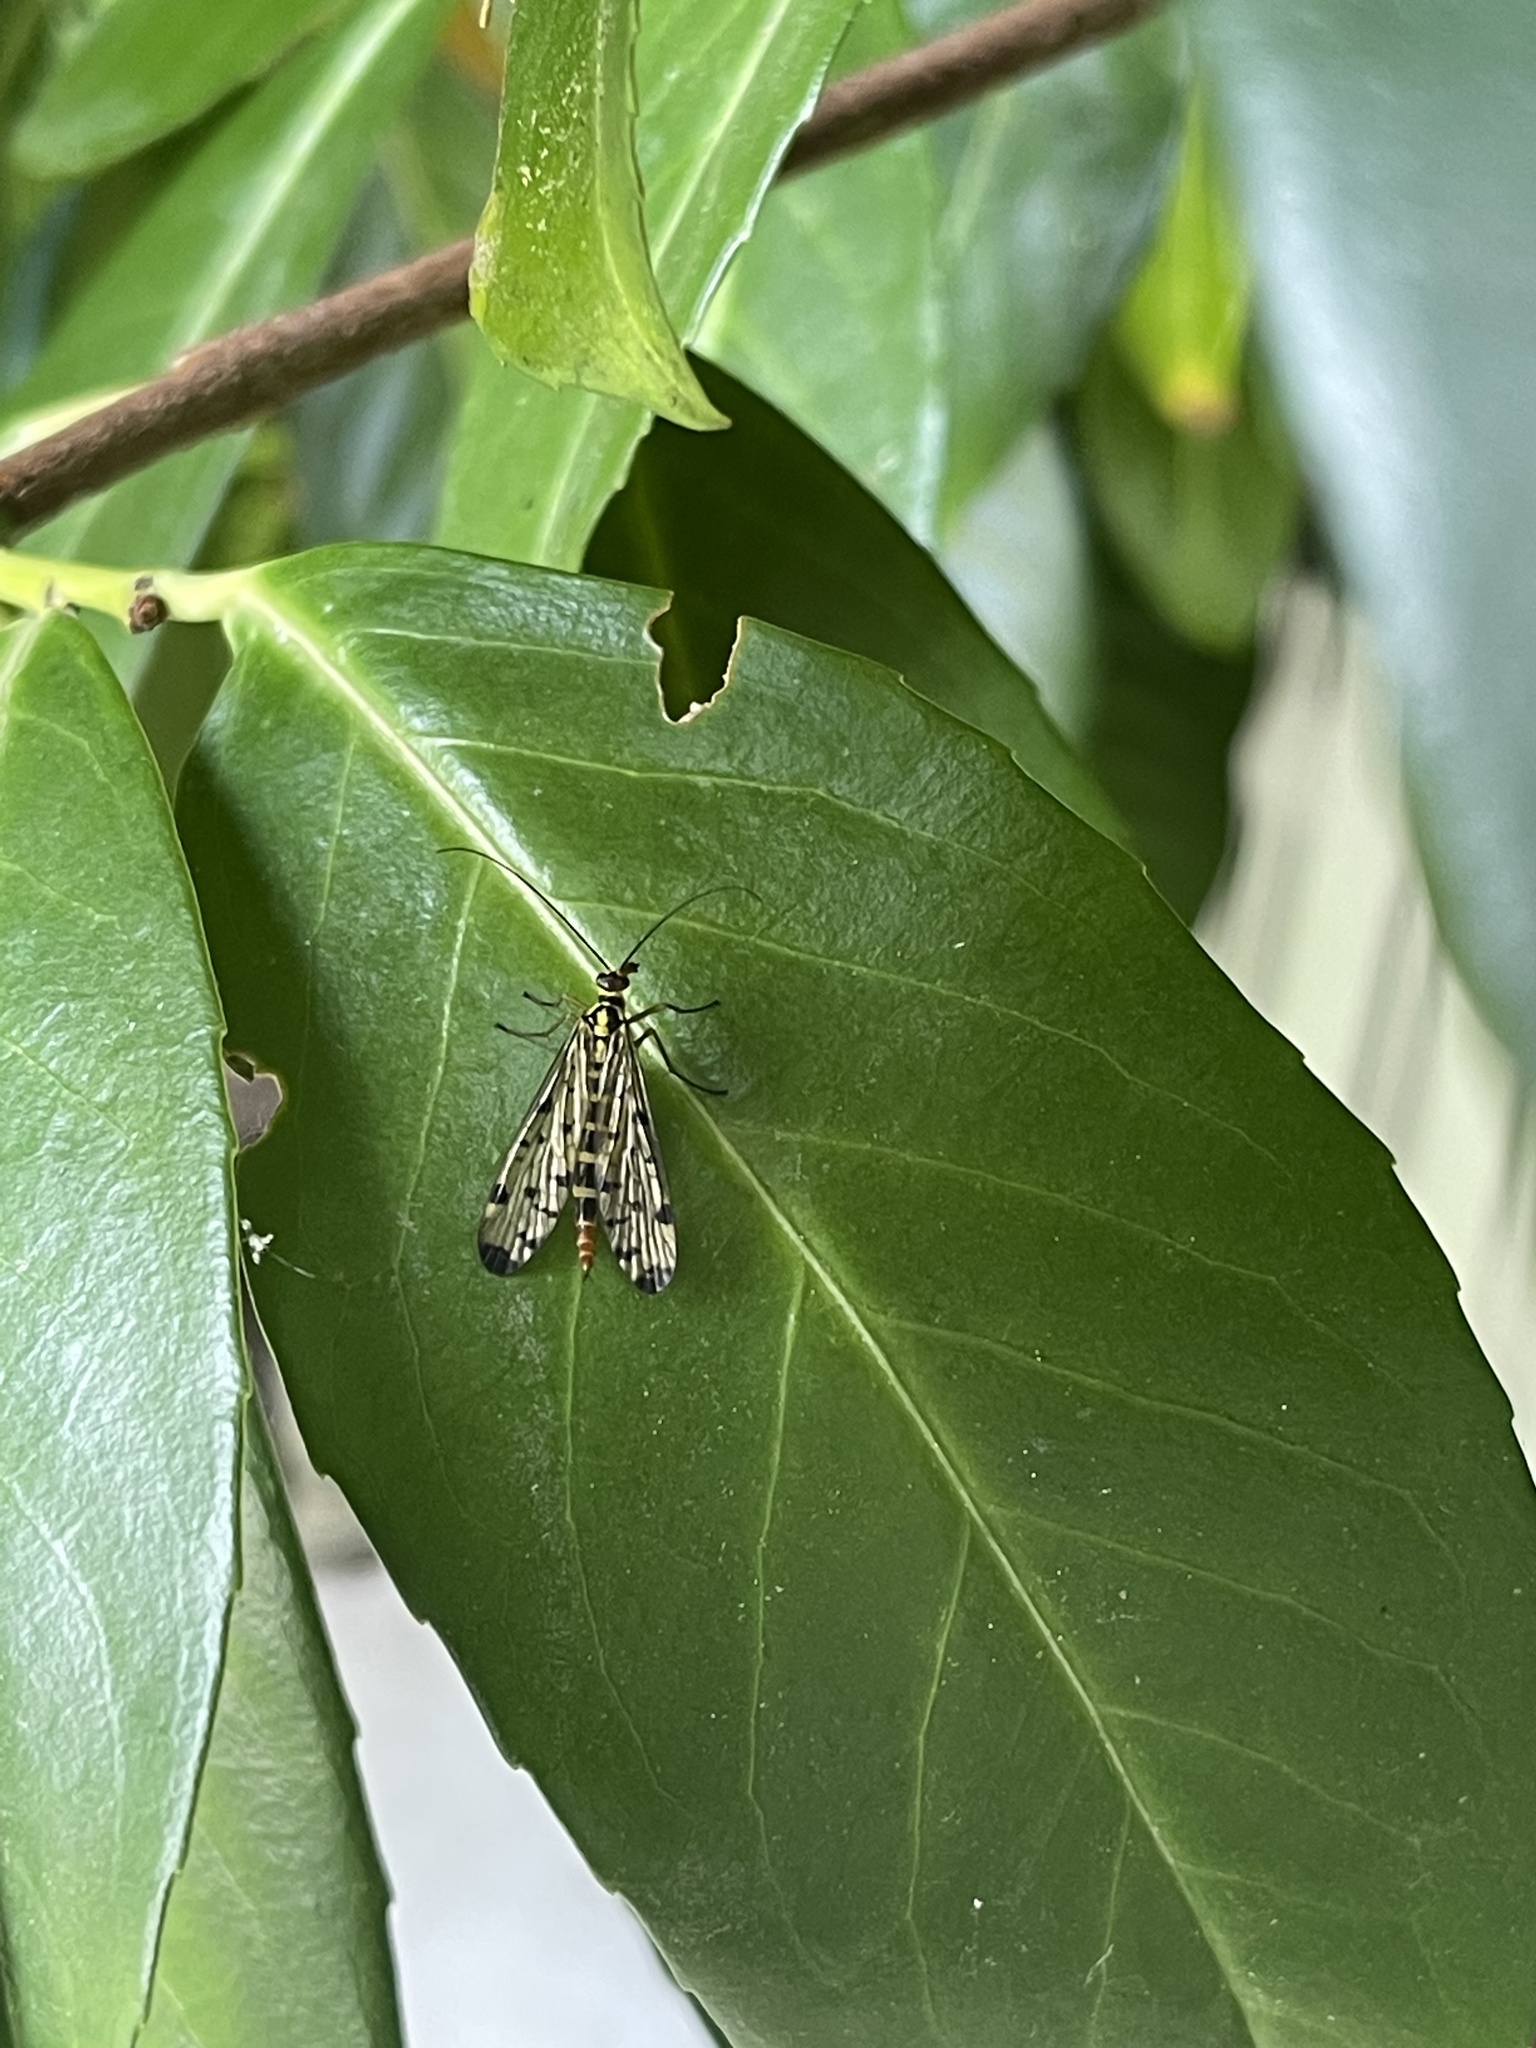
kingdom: Animalia
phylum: Arthropoda
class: Insecta
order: Mecoptera
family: Panorpidae
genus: Panorpa
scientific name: Panorpa germanica
